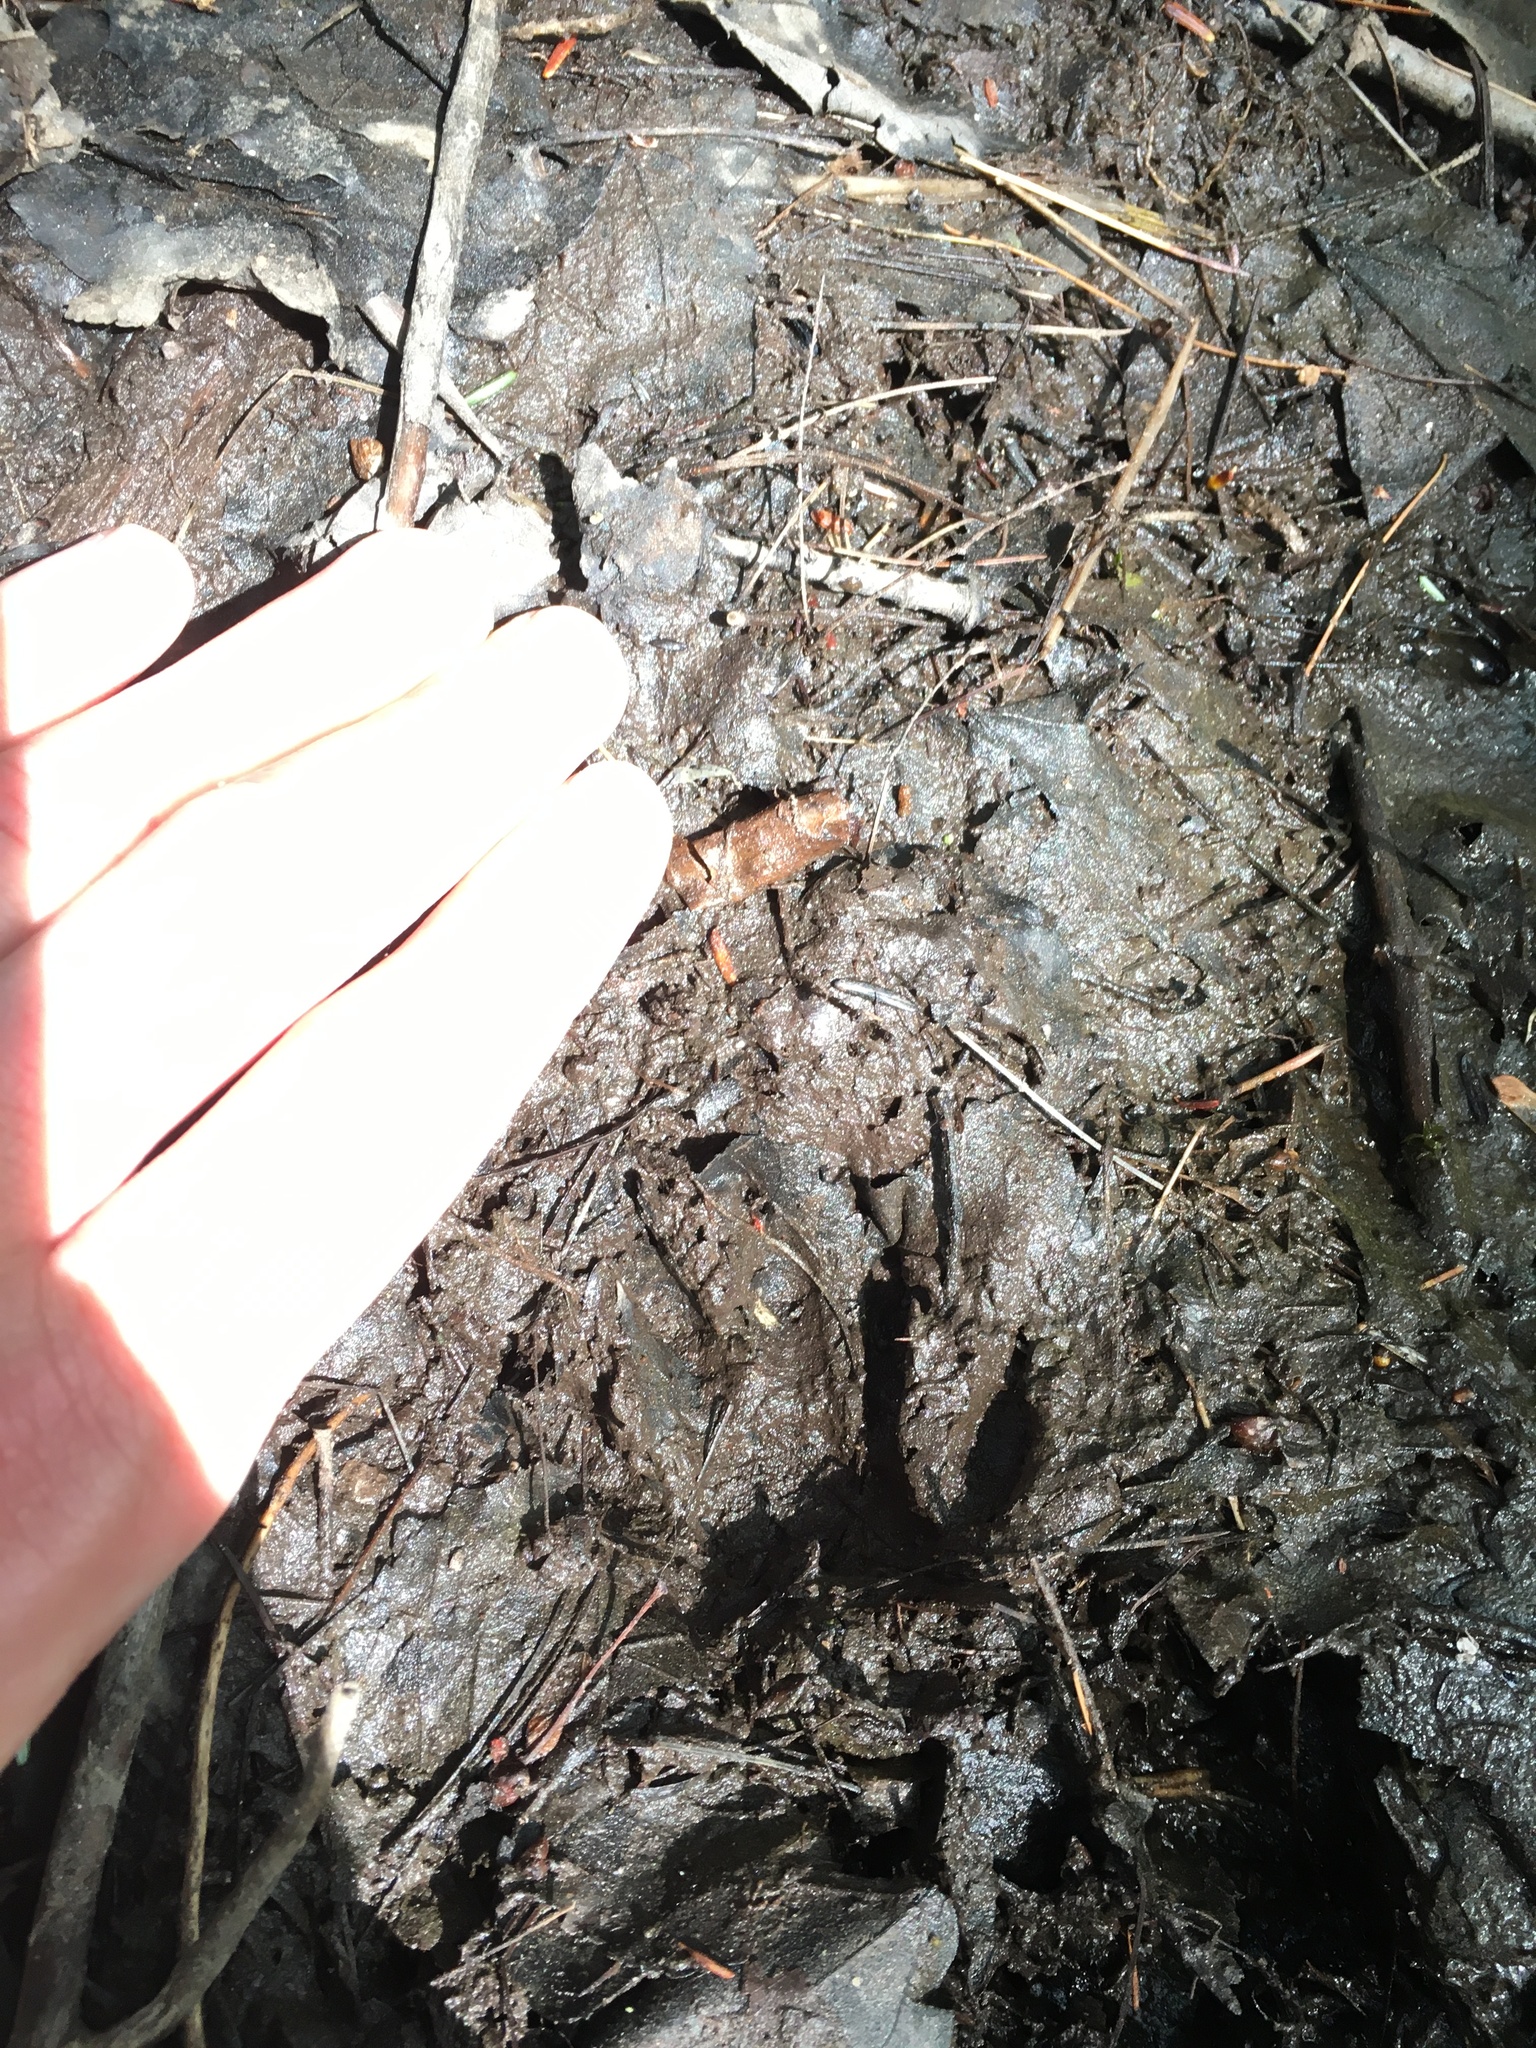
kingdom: Animalia
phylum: Chordata
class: Mammalia
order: Carnivora
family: Procyonidae
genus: Procyon
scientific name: Procyon lotor
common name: Raccoon
